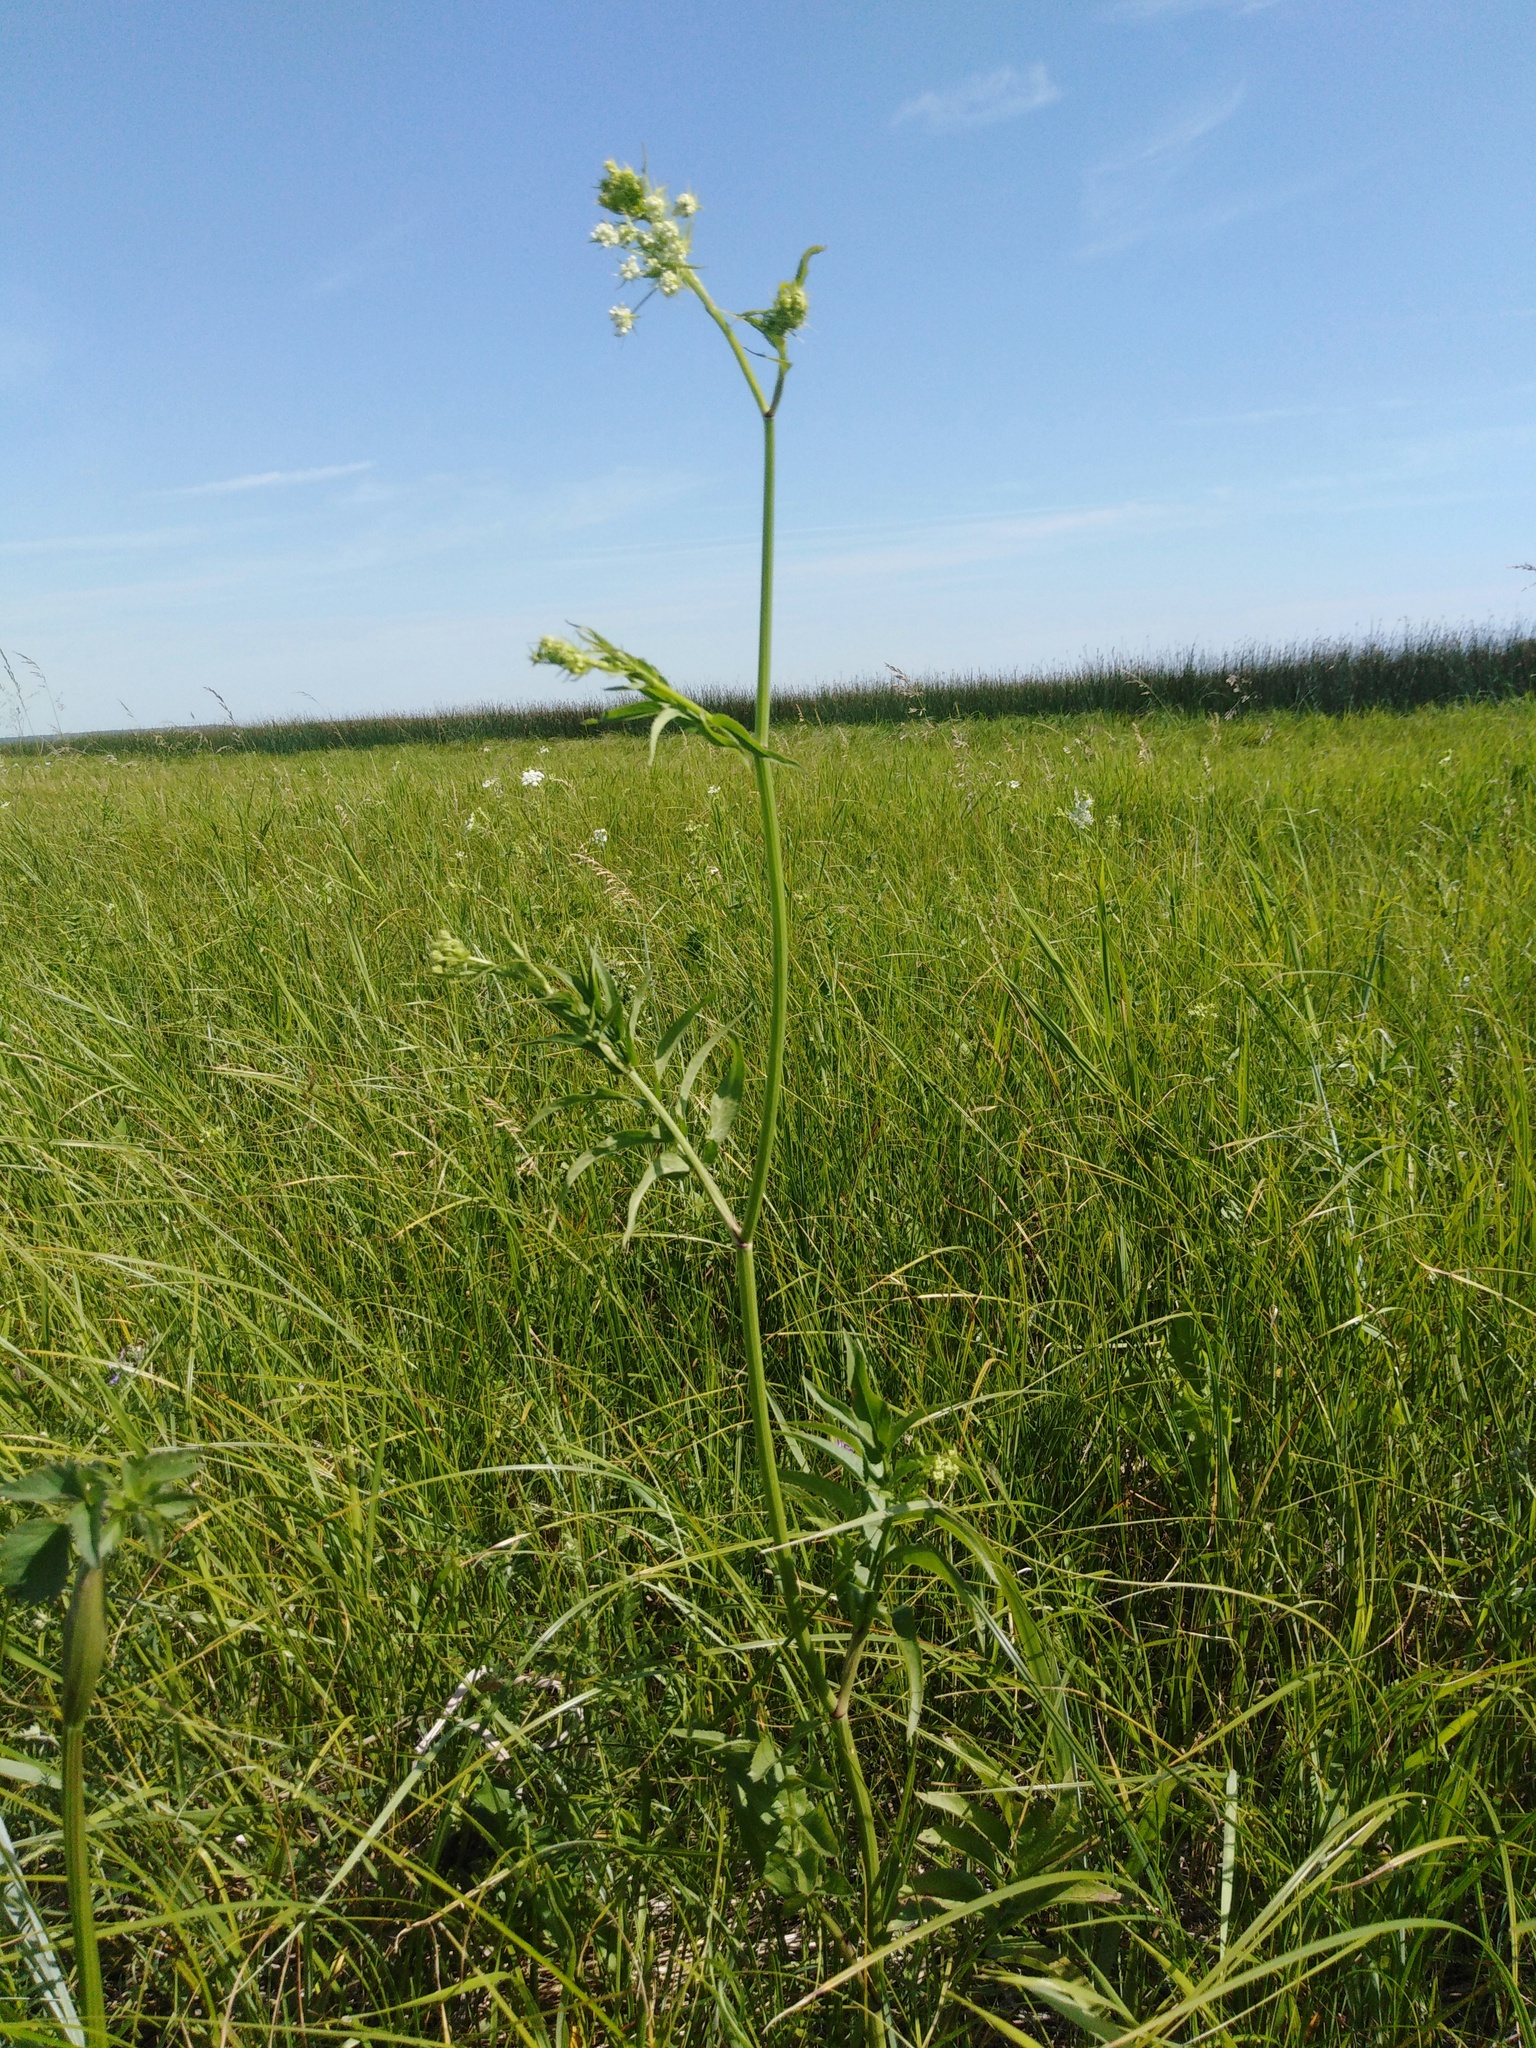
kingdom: Plantae
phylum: Tracheophyta
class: Magnoliopsida
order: Apiales
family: Apiaceae
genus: Sium
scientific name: Sium sisarum
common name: Skirret
